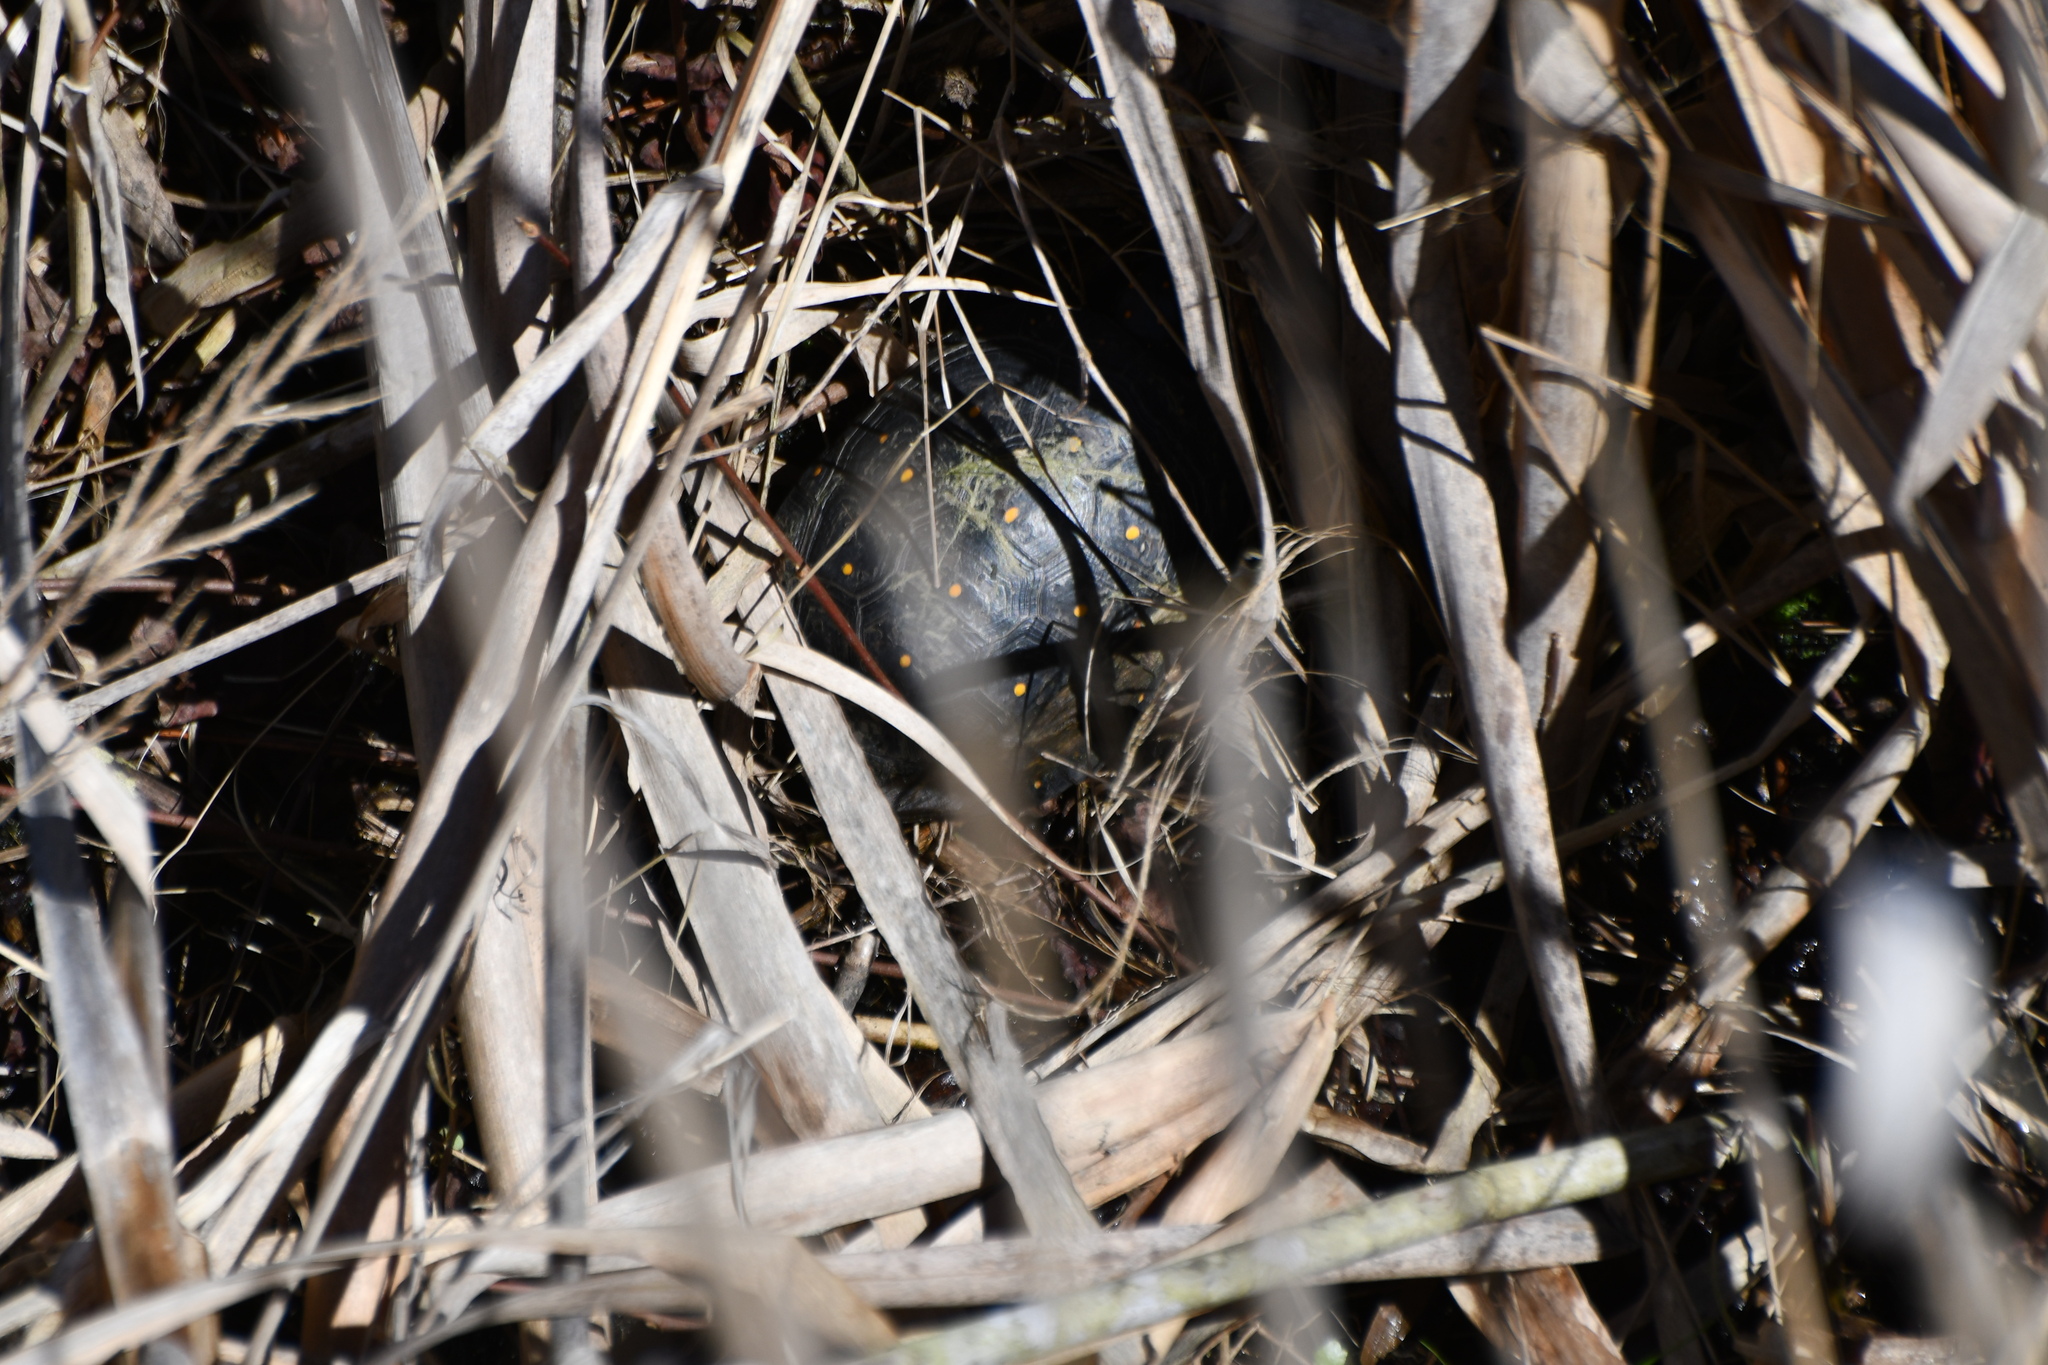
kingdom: Animalia
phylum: Chordata
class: Testudines
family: Emydidae
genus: Clemmys
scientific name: Clemmys guttata
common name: Spotted turtle
